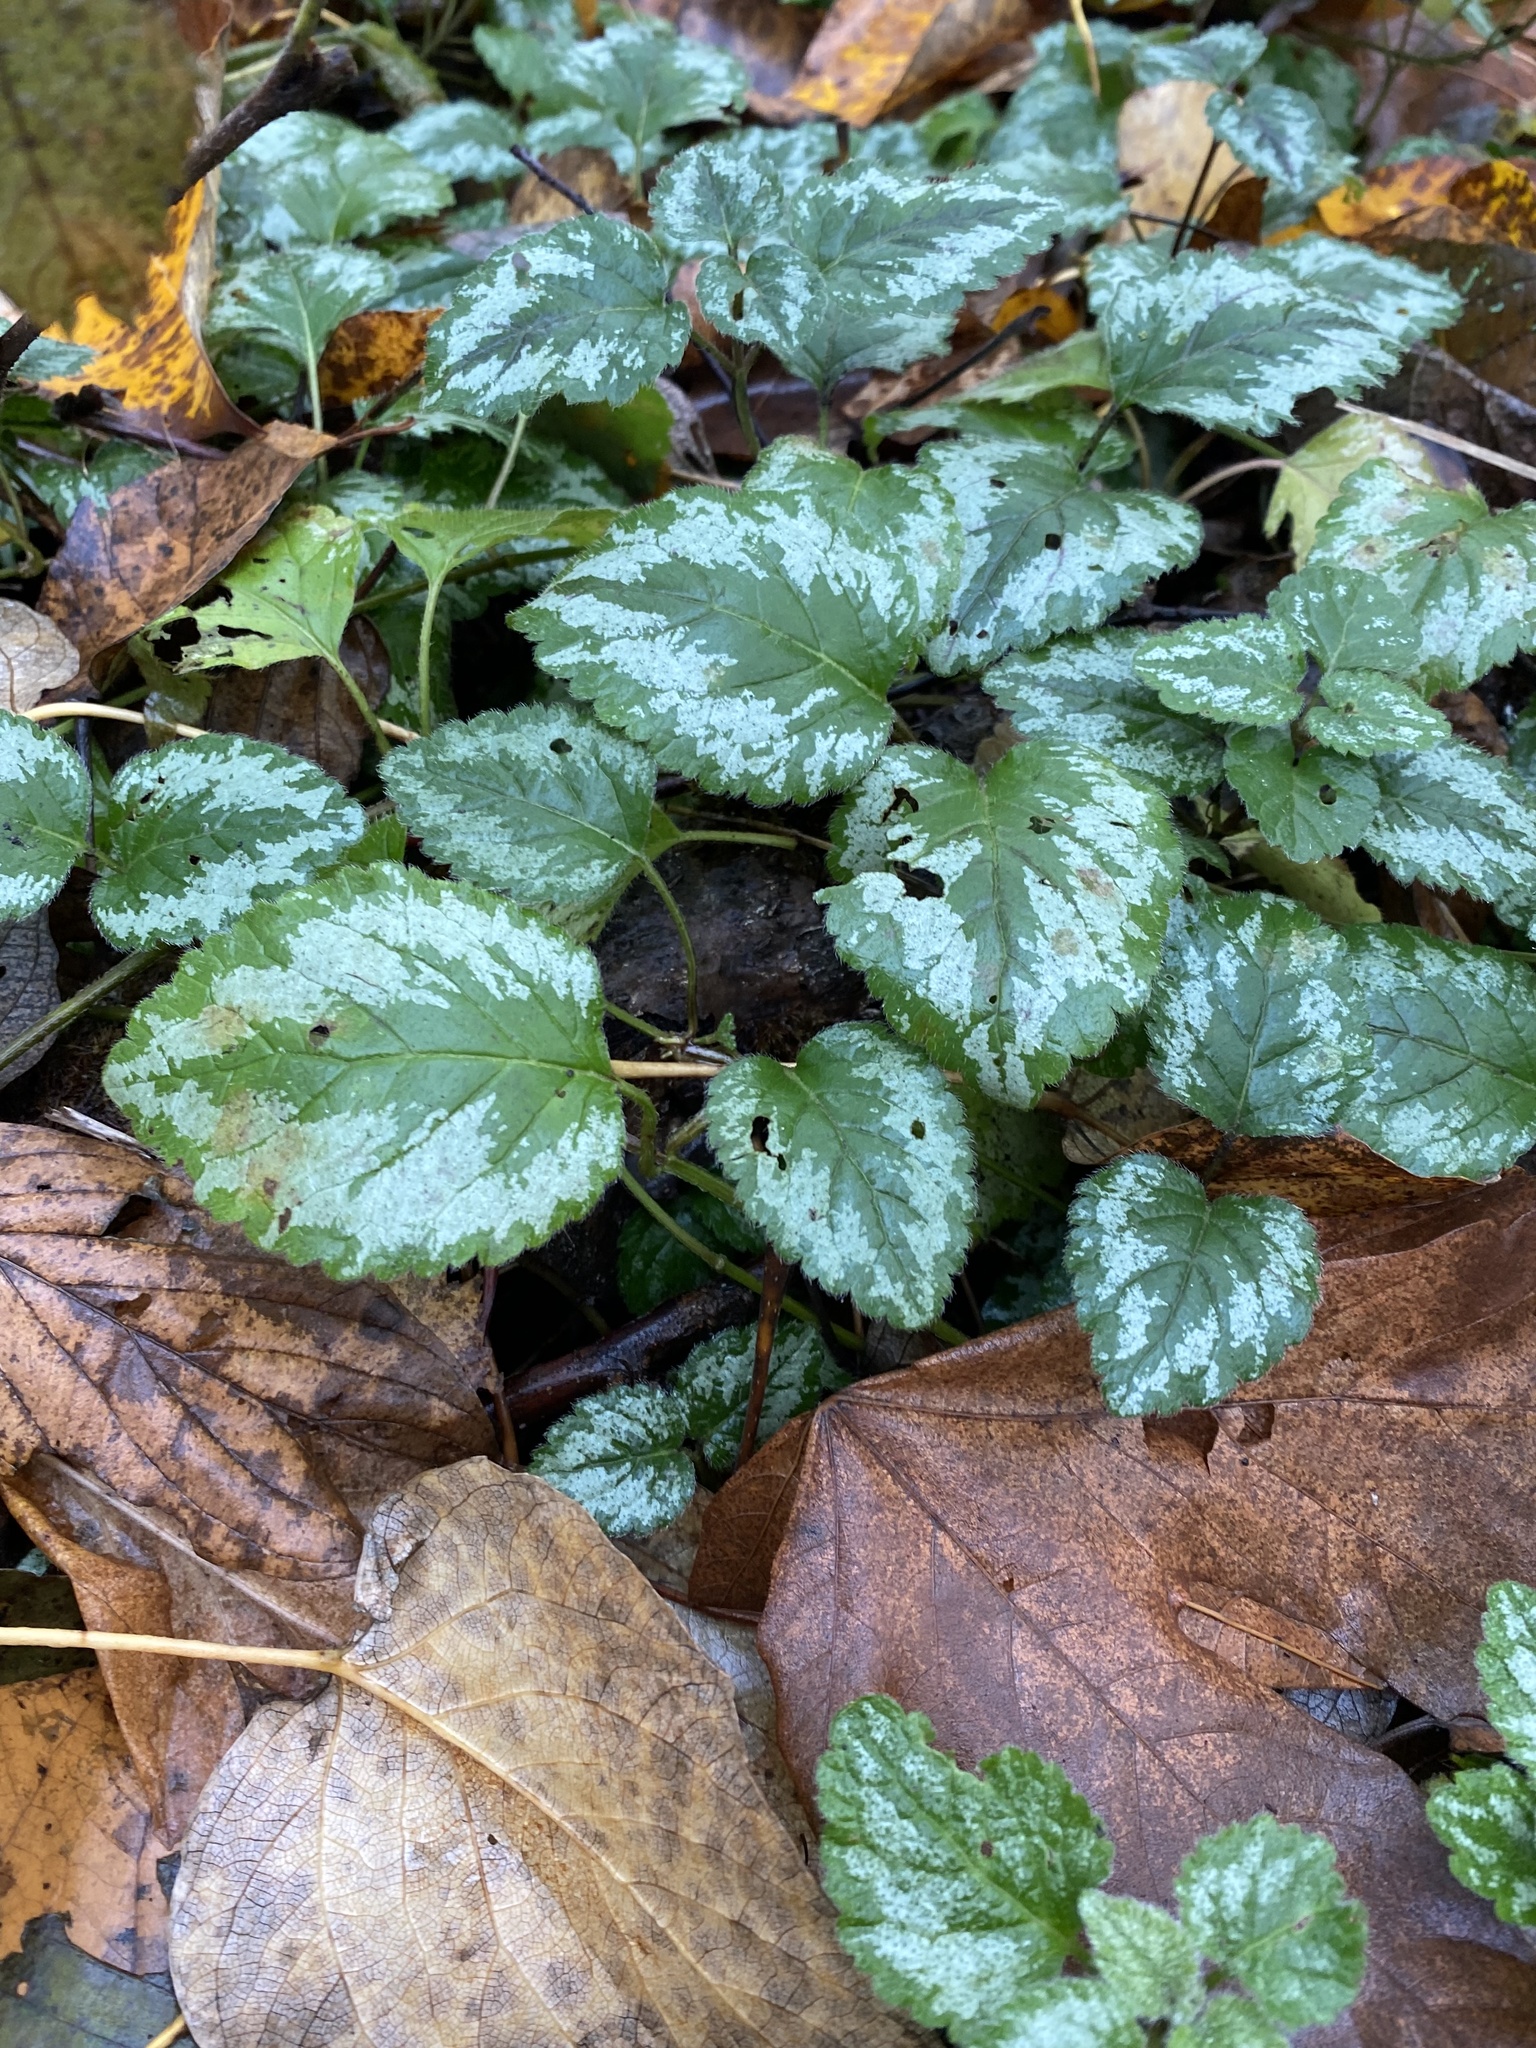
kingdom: Plantae
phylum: Tracheophyta
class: Magnoliopsida
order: Lamiales
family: Lamiaceae
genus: Lamium
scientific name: Lamium galeobdolon
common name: Yellow archangel
